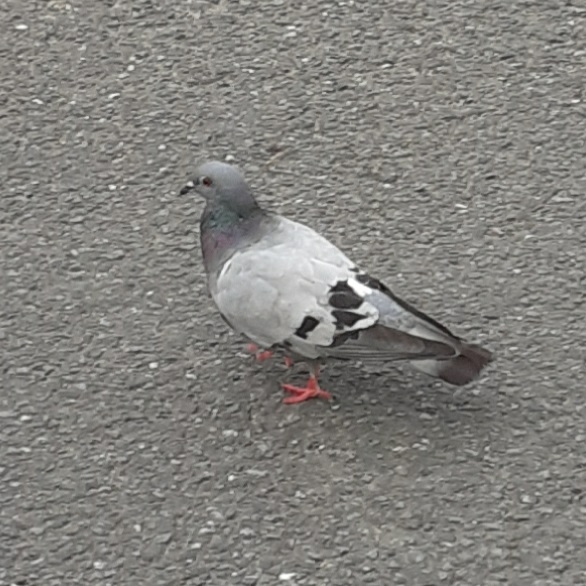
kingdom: Animalia
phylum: Chordata
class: Aves
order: Columbiformes
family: Columbidae
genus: Columba
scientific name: Columba livia
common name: Rock pigeon
